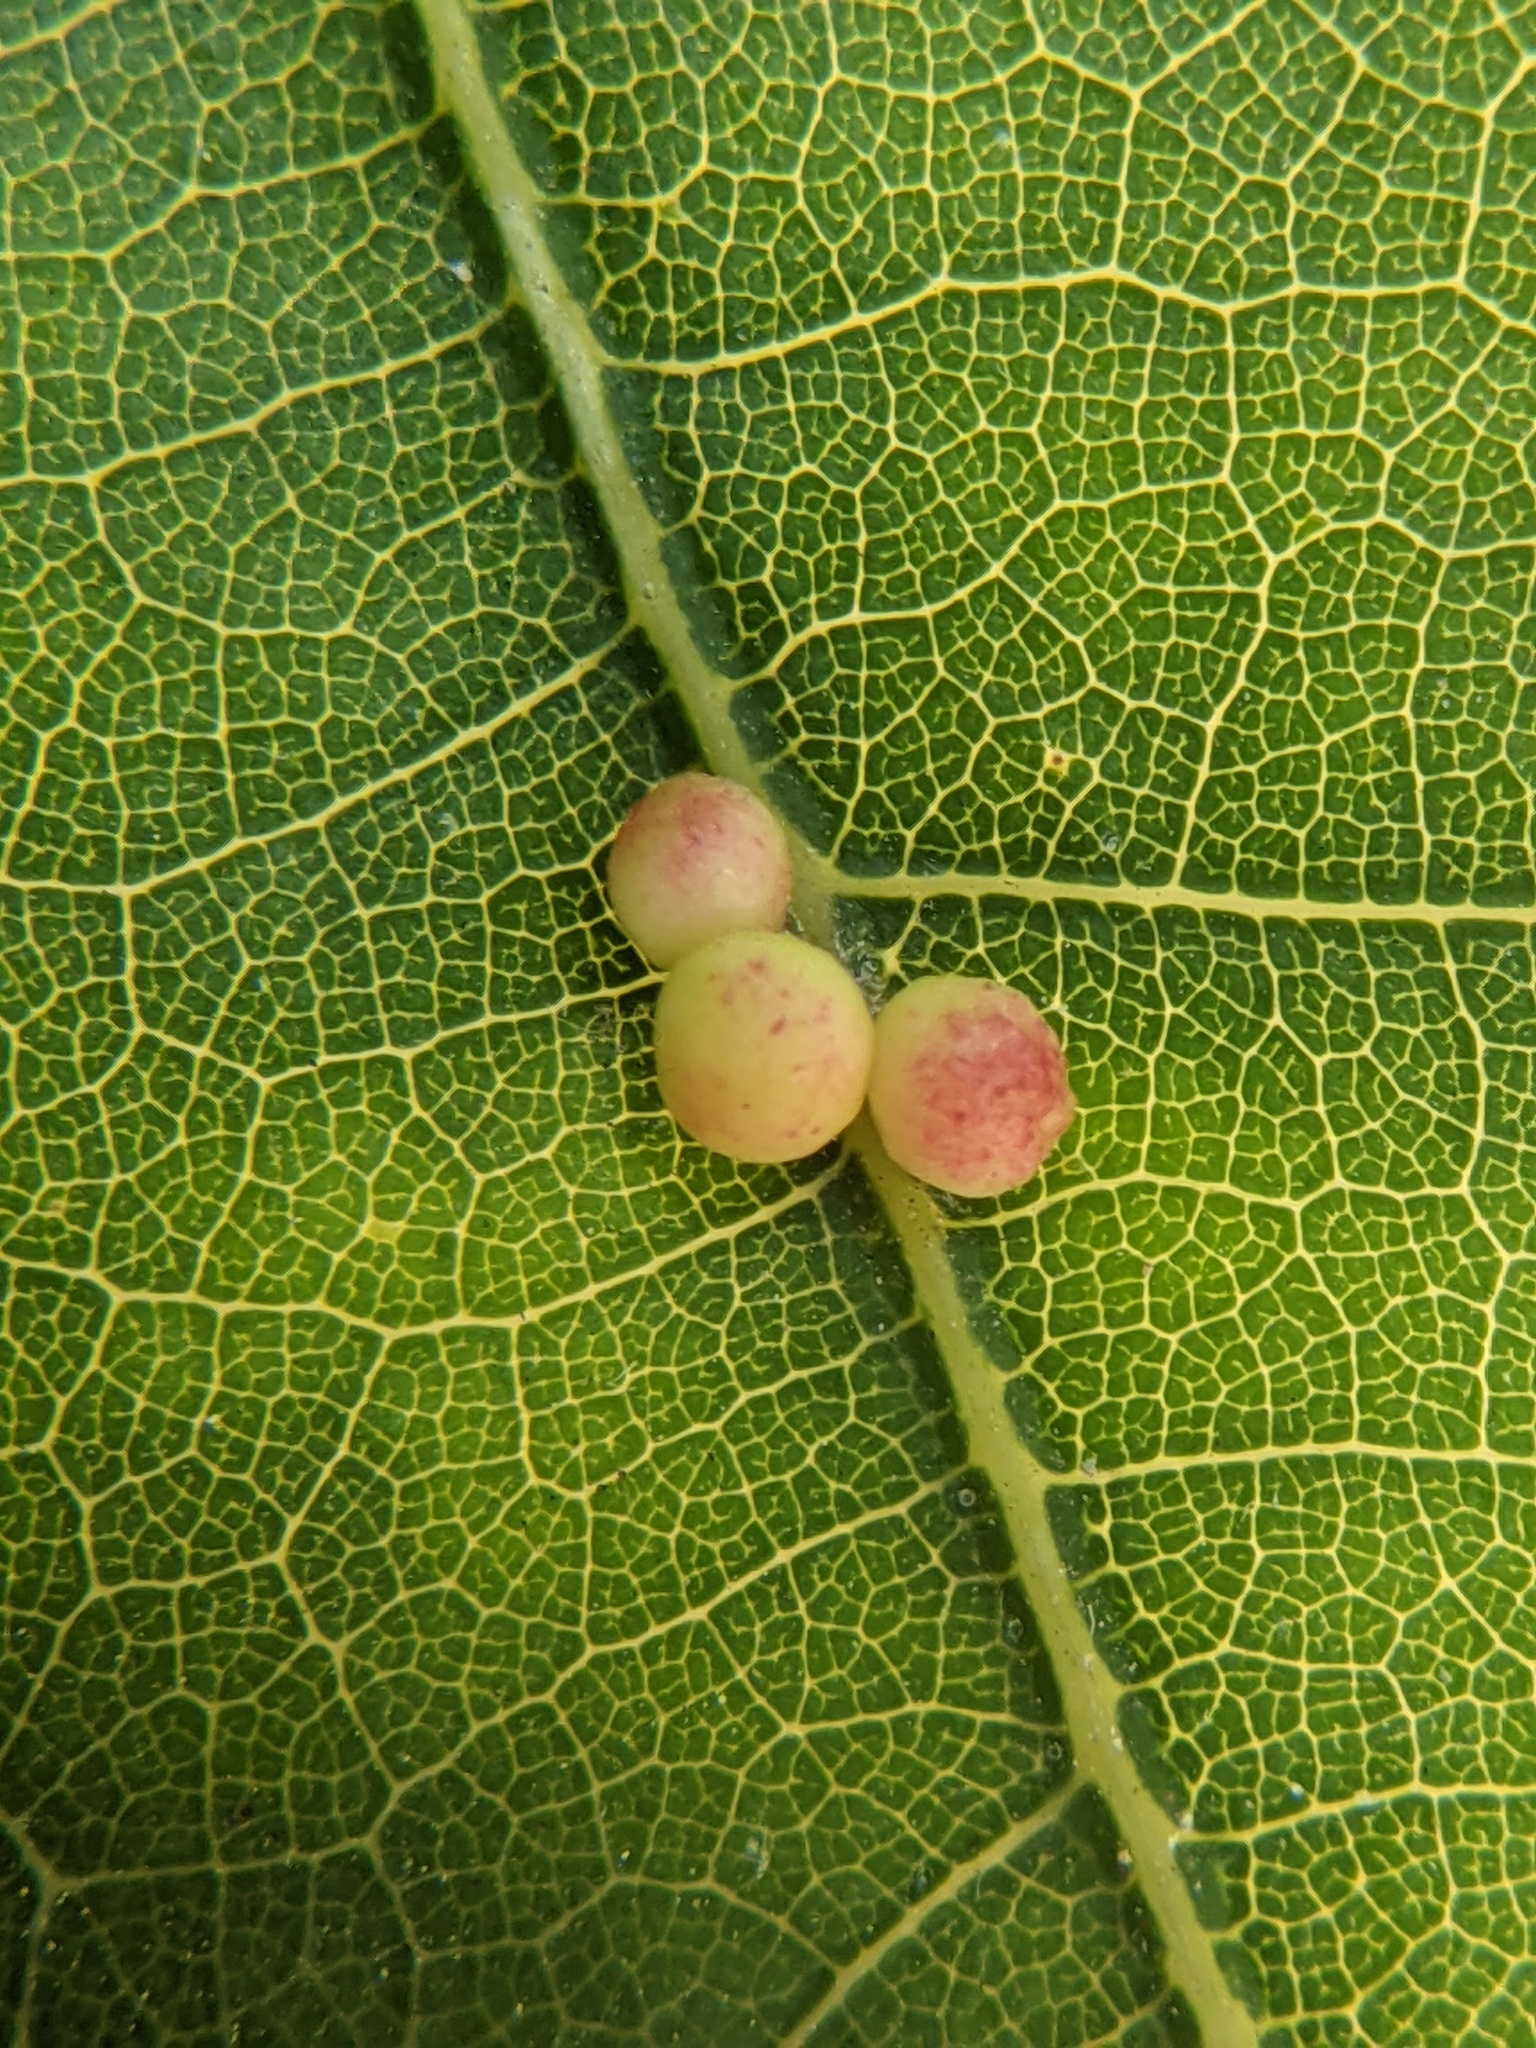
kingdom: Animalia
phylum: Arthropoda
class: Insecta
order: Hymenoptera
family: Cynipidae
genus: Zopheroteras
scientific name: Zopheroteras
